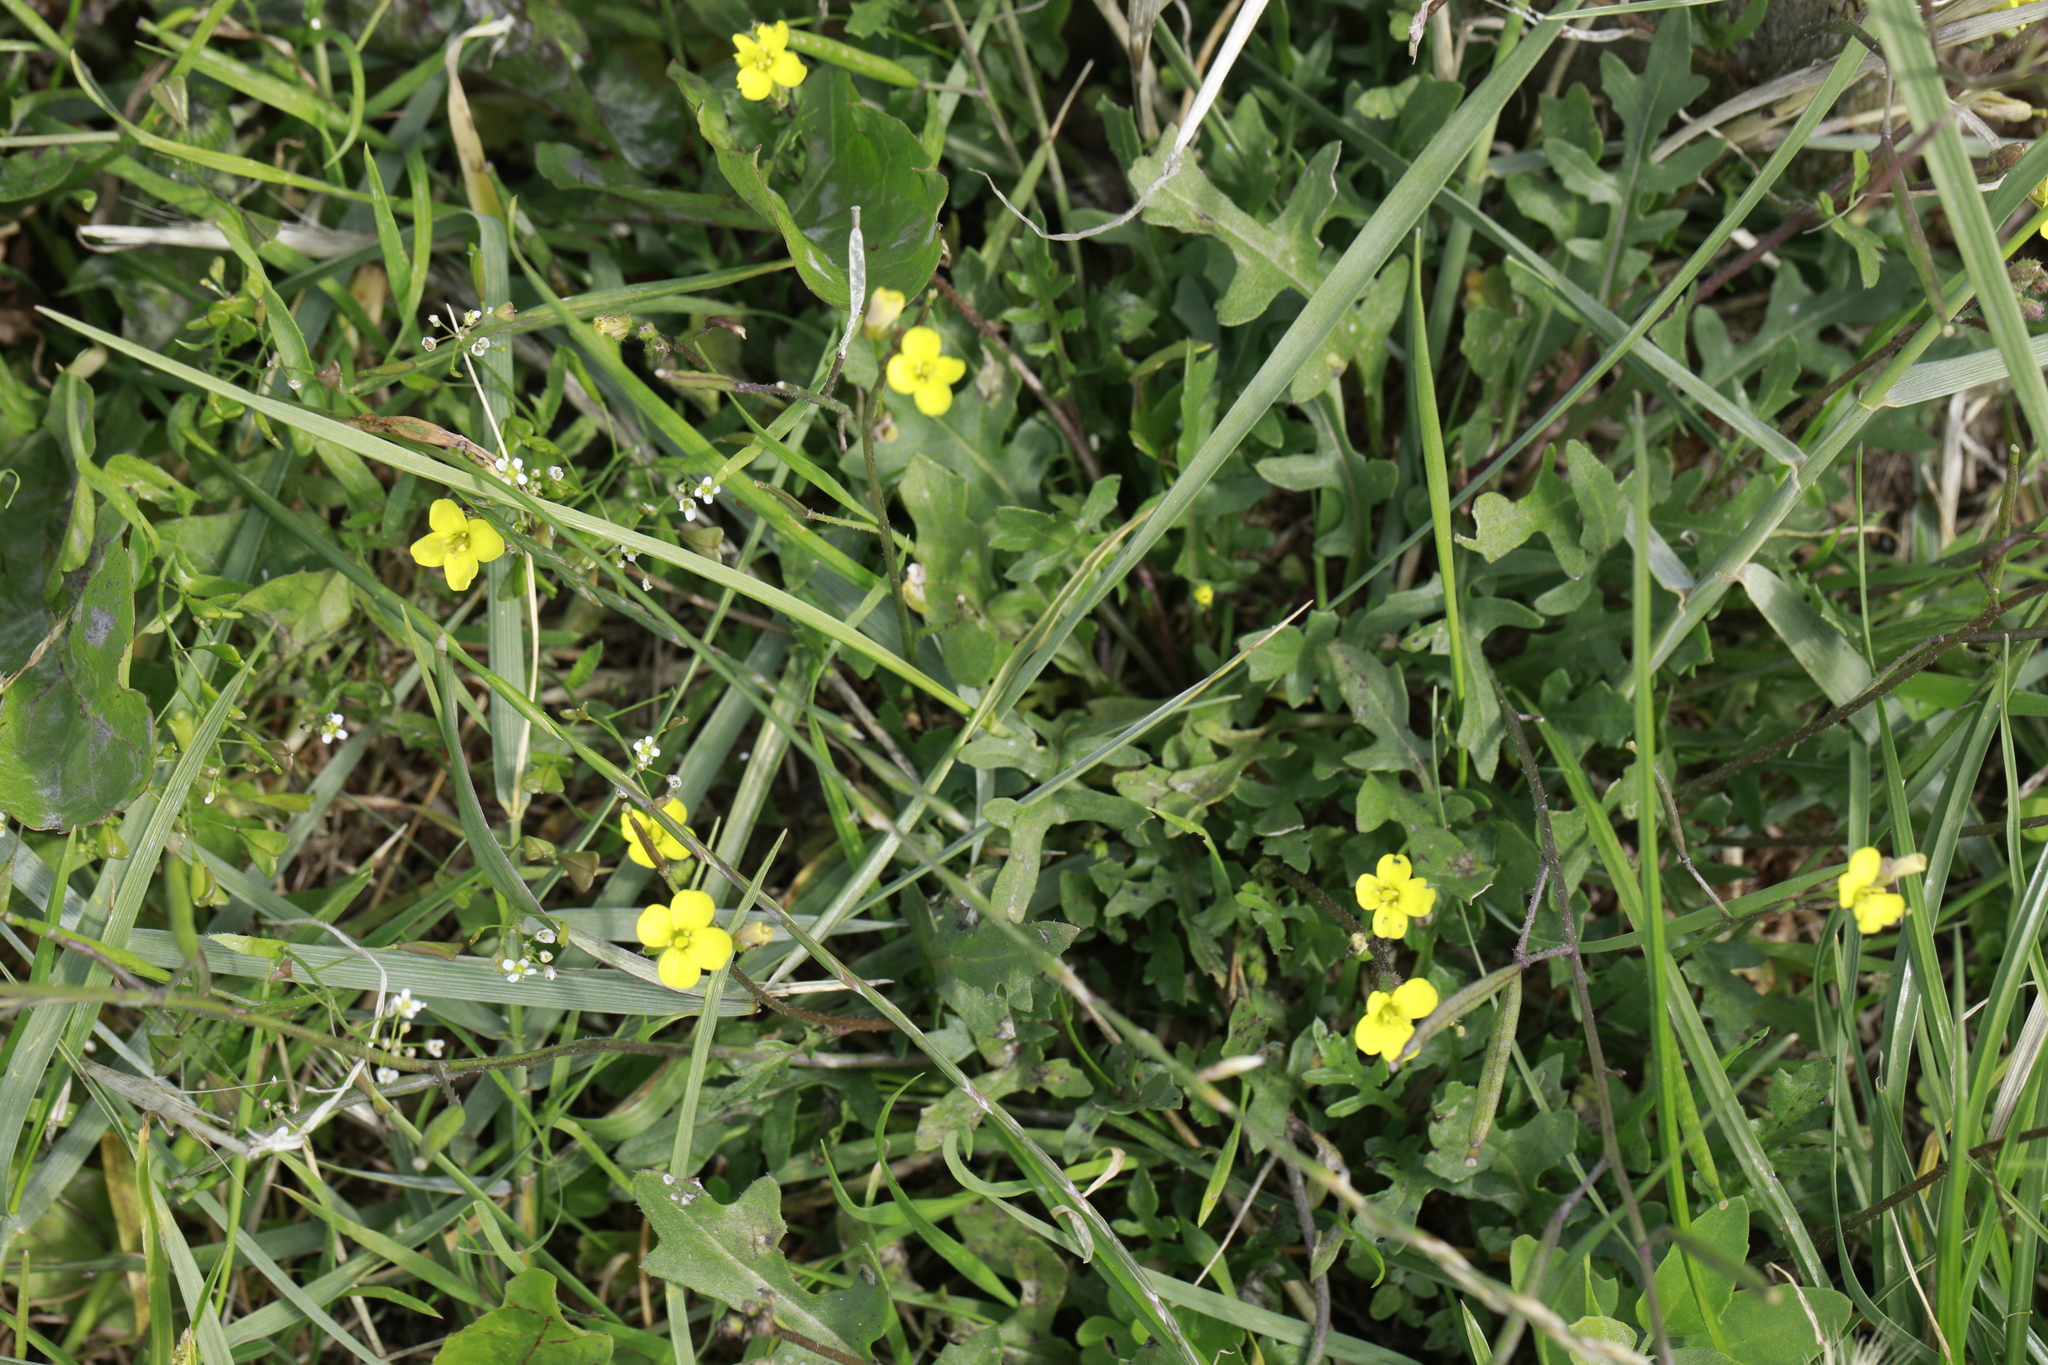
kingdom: Plantae
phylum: Tracheophyta
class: Magnoliopsida
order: Brassicales
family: Brassicaceae
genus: Diplotaxis
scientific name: Diplotaxis muralis
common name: Annual wall-rocket
